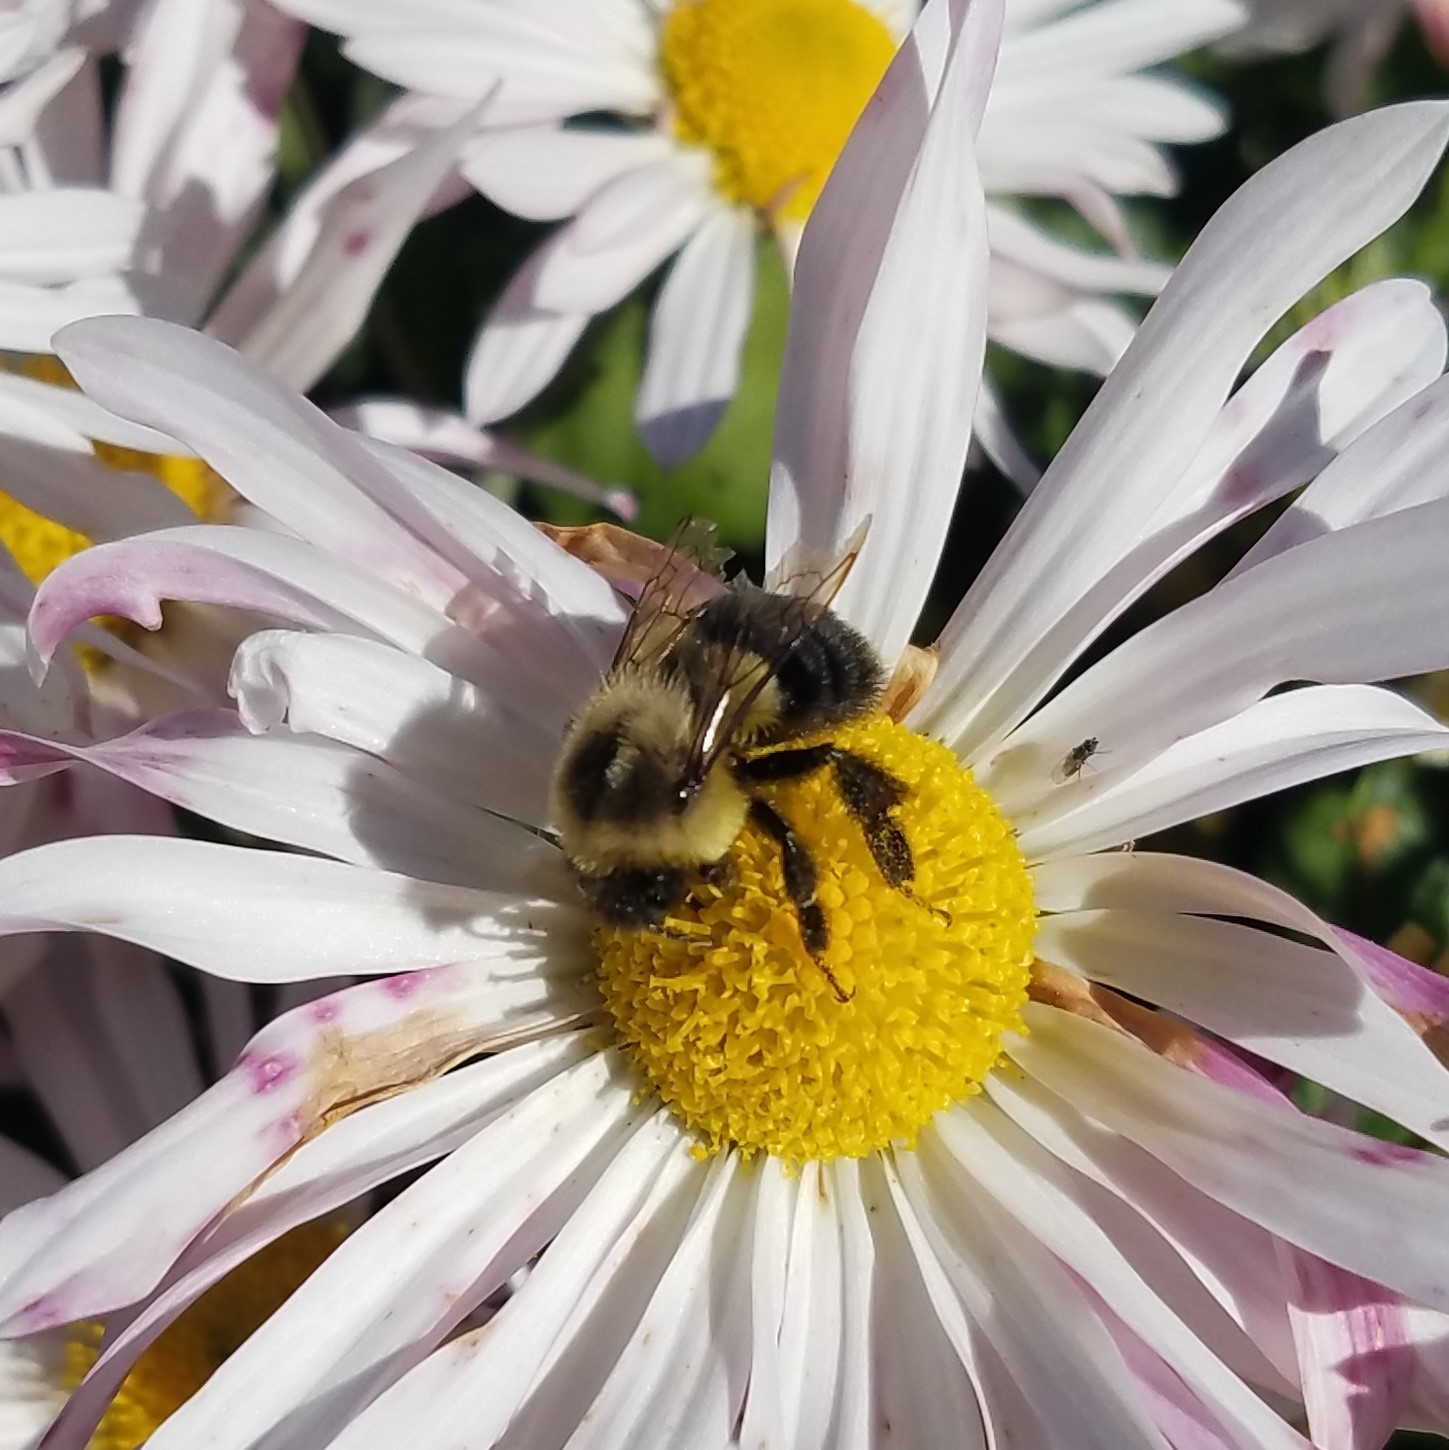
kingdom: Animalia
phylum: Arthropoda
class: Insecta
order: Hymenoptera
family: Apidae
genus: Bombus
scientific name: Bombus impatiens
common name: Common eastern bumble bee
